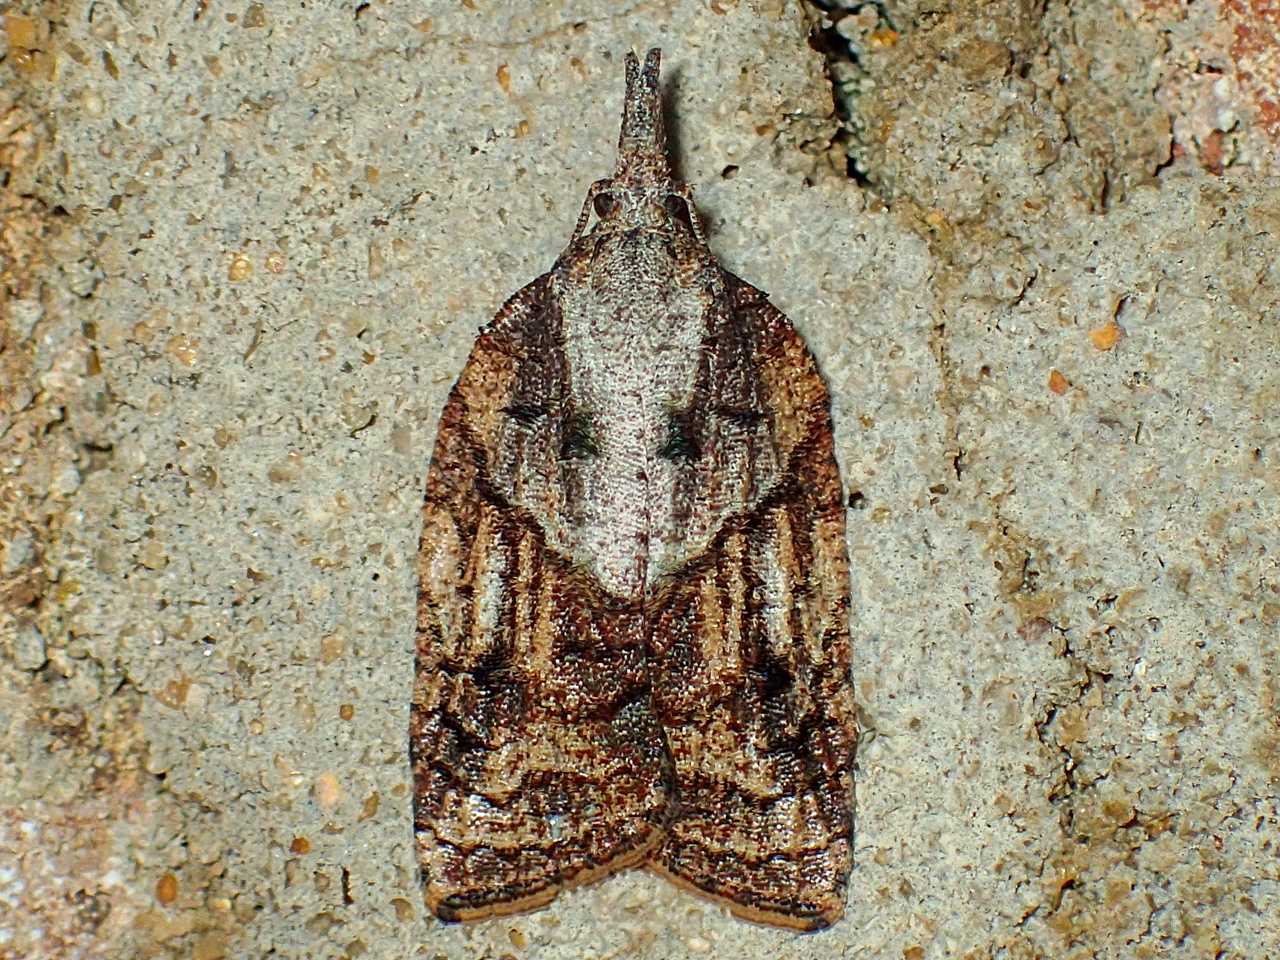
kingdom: Animalia
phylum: Arthropoda
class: Insecta
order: Lepidoptera
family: Tortricidae
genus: Platynota
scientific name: Platynota idaeusalis
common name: Tufted apple bud moth
